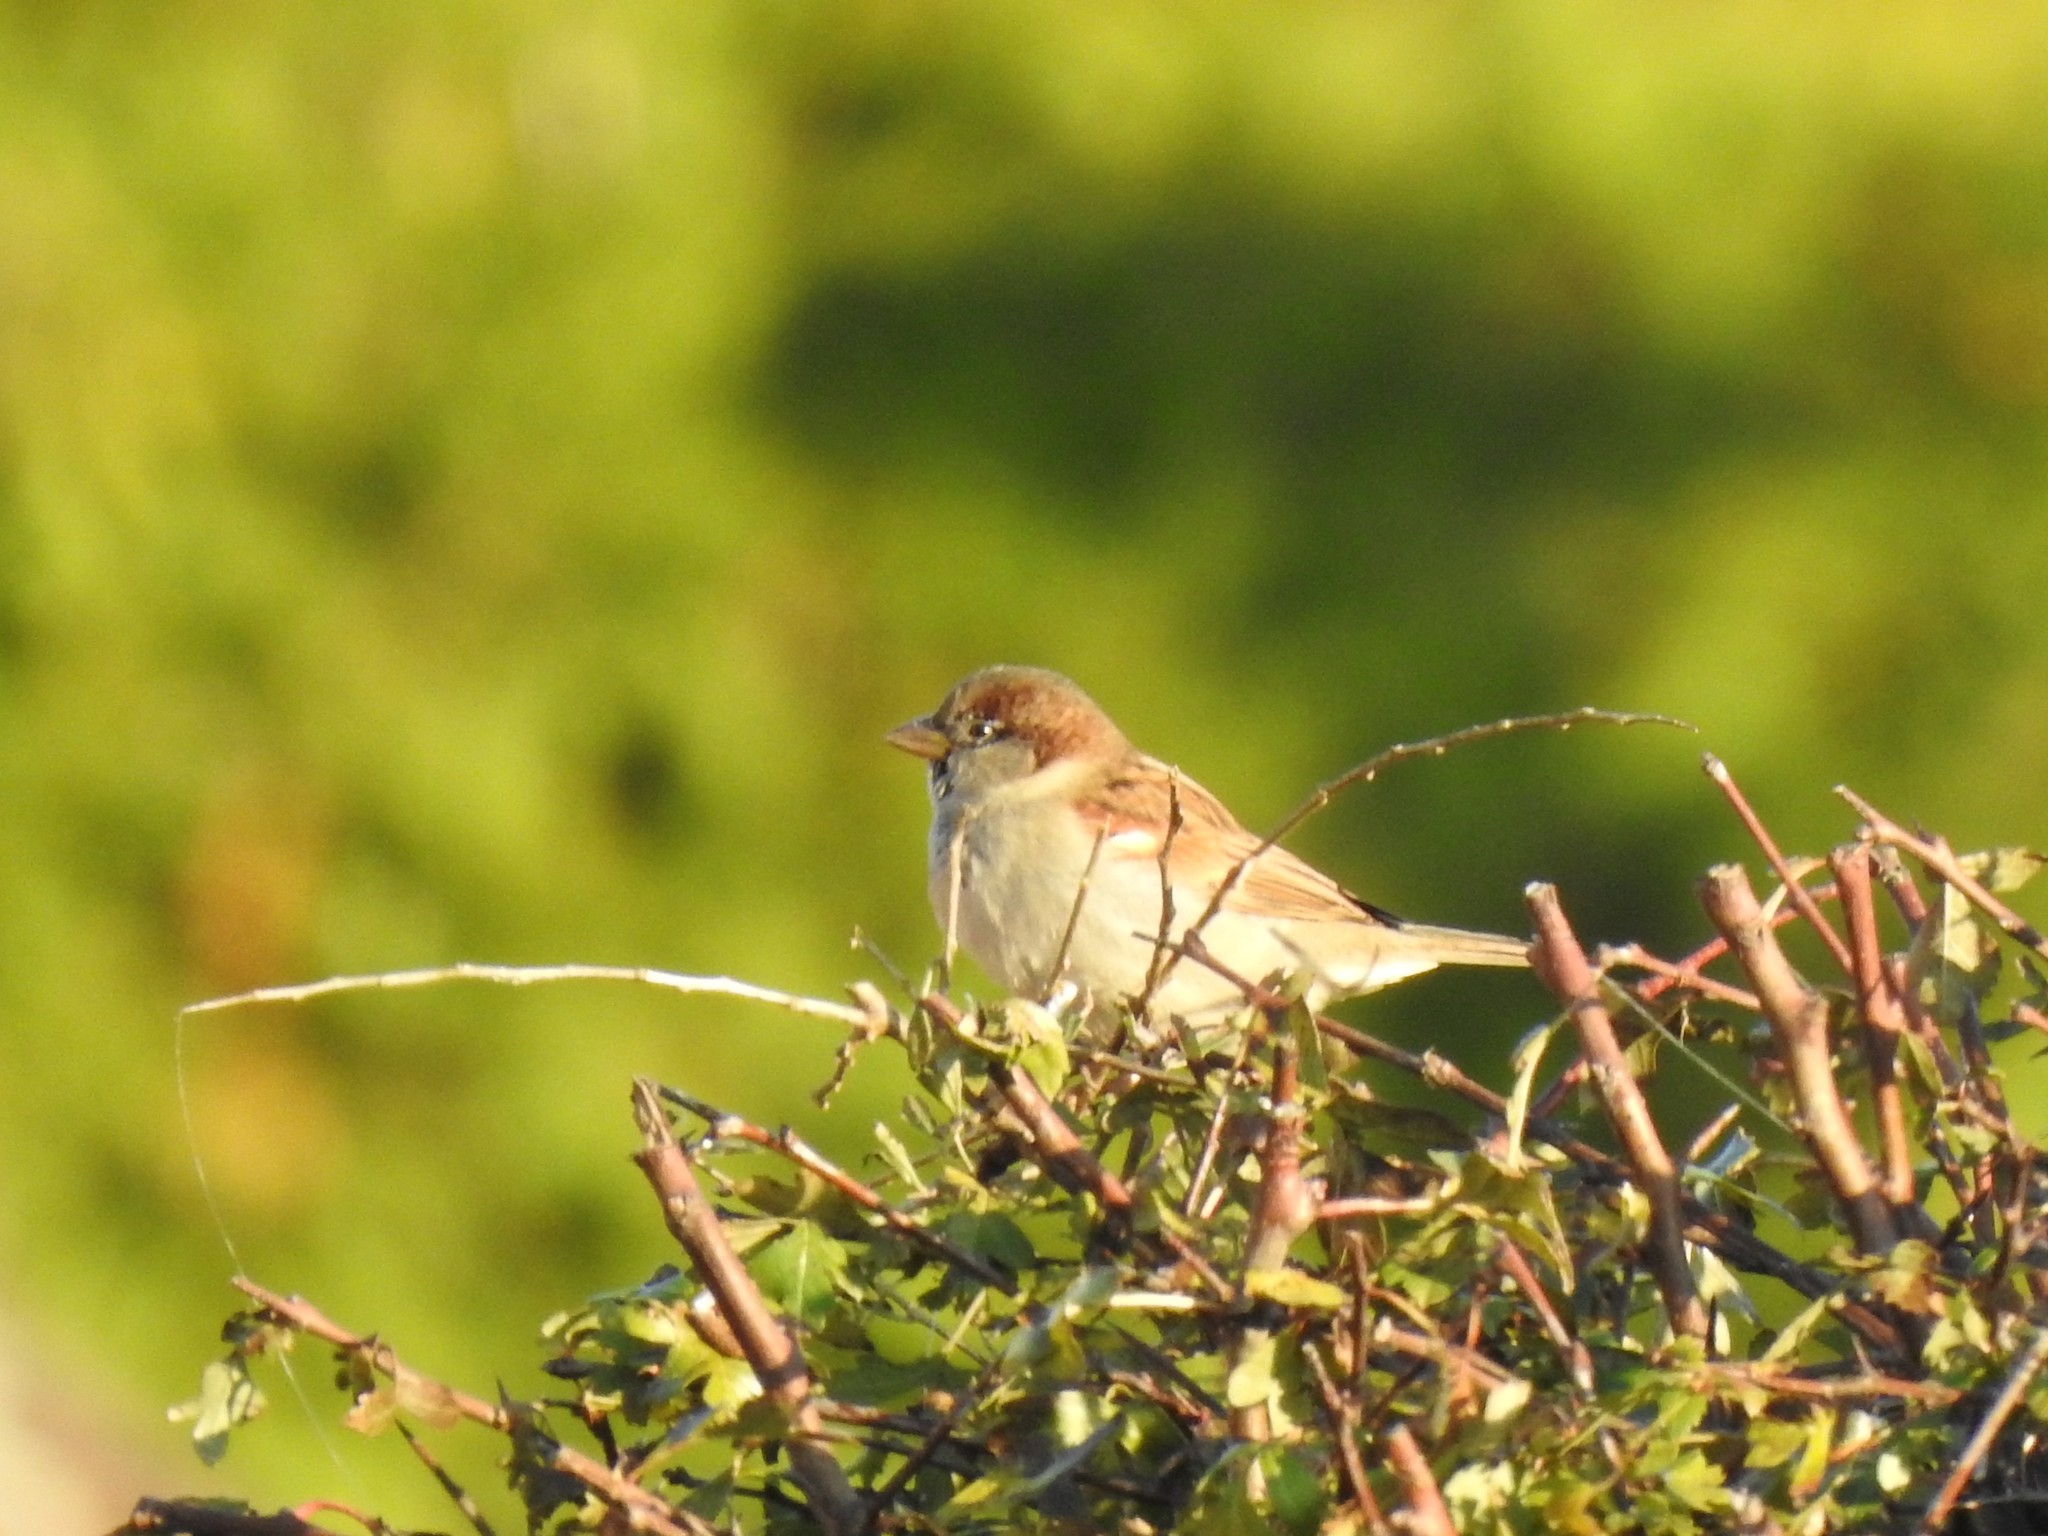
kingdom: Animalia
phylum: Chordata
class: Aves
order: Passeriformes
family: Passeridae
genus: Passer
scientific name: Passer domesticus
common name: House sparrow
